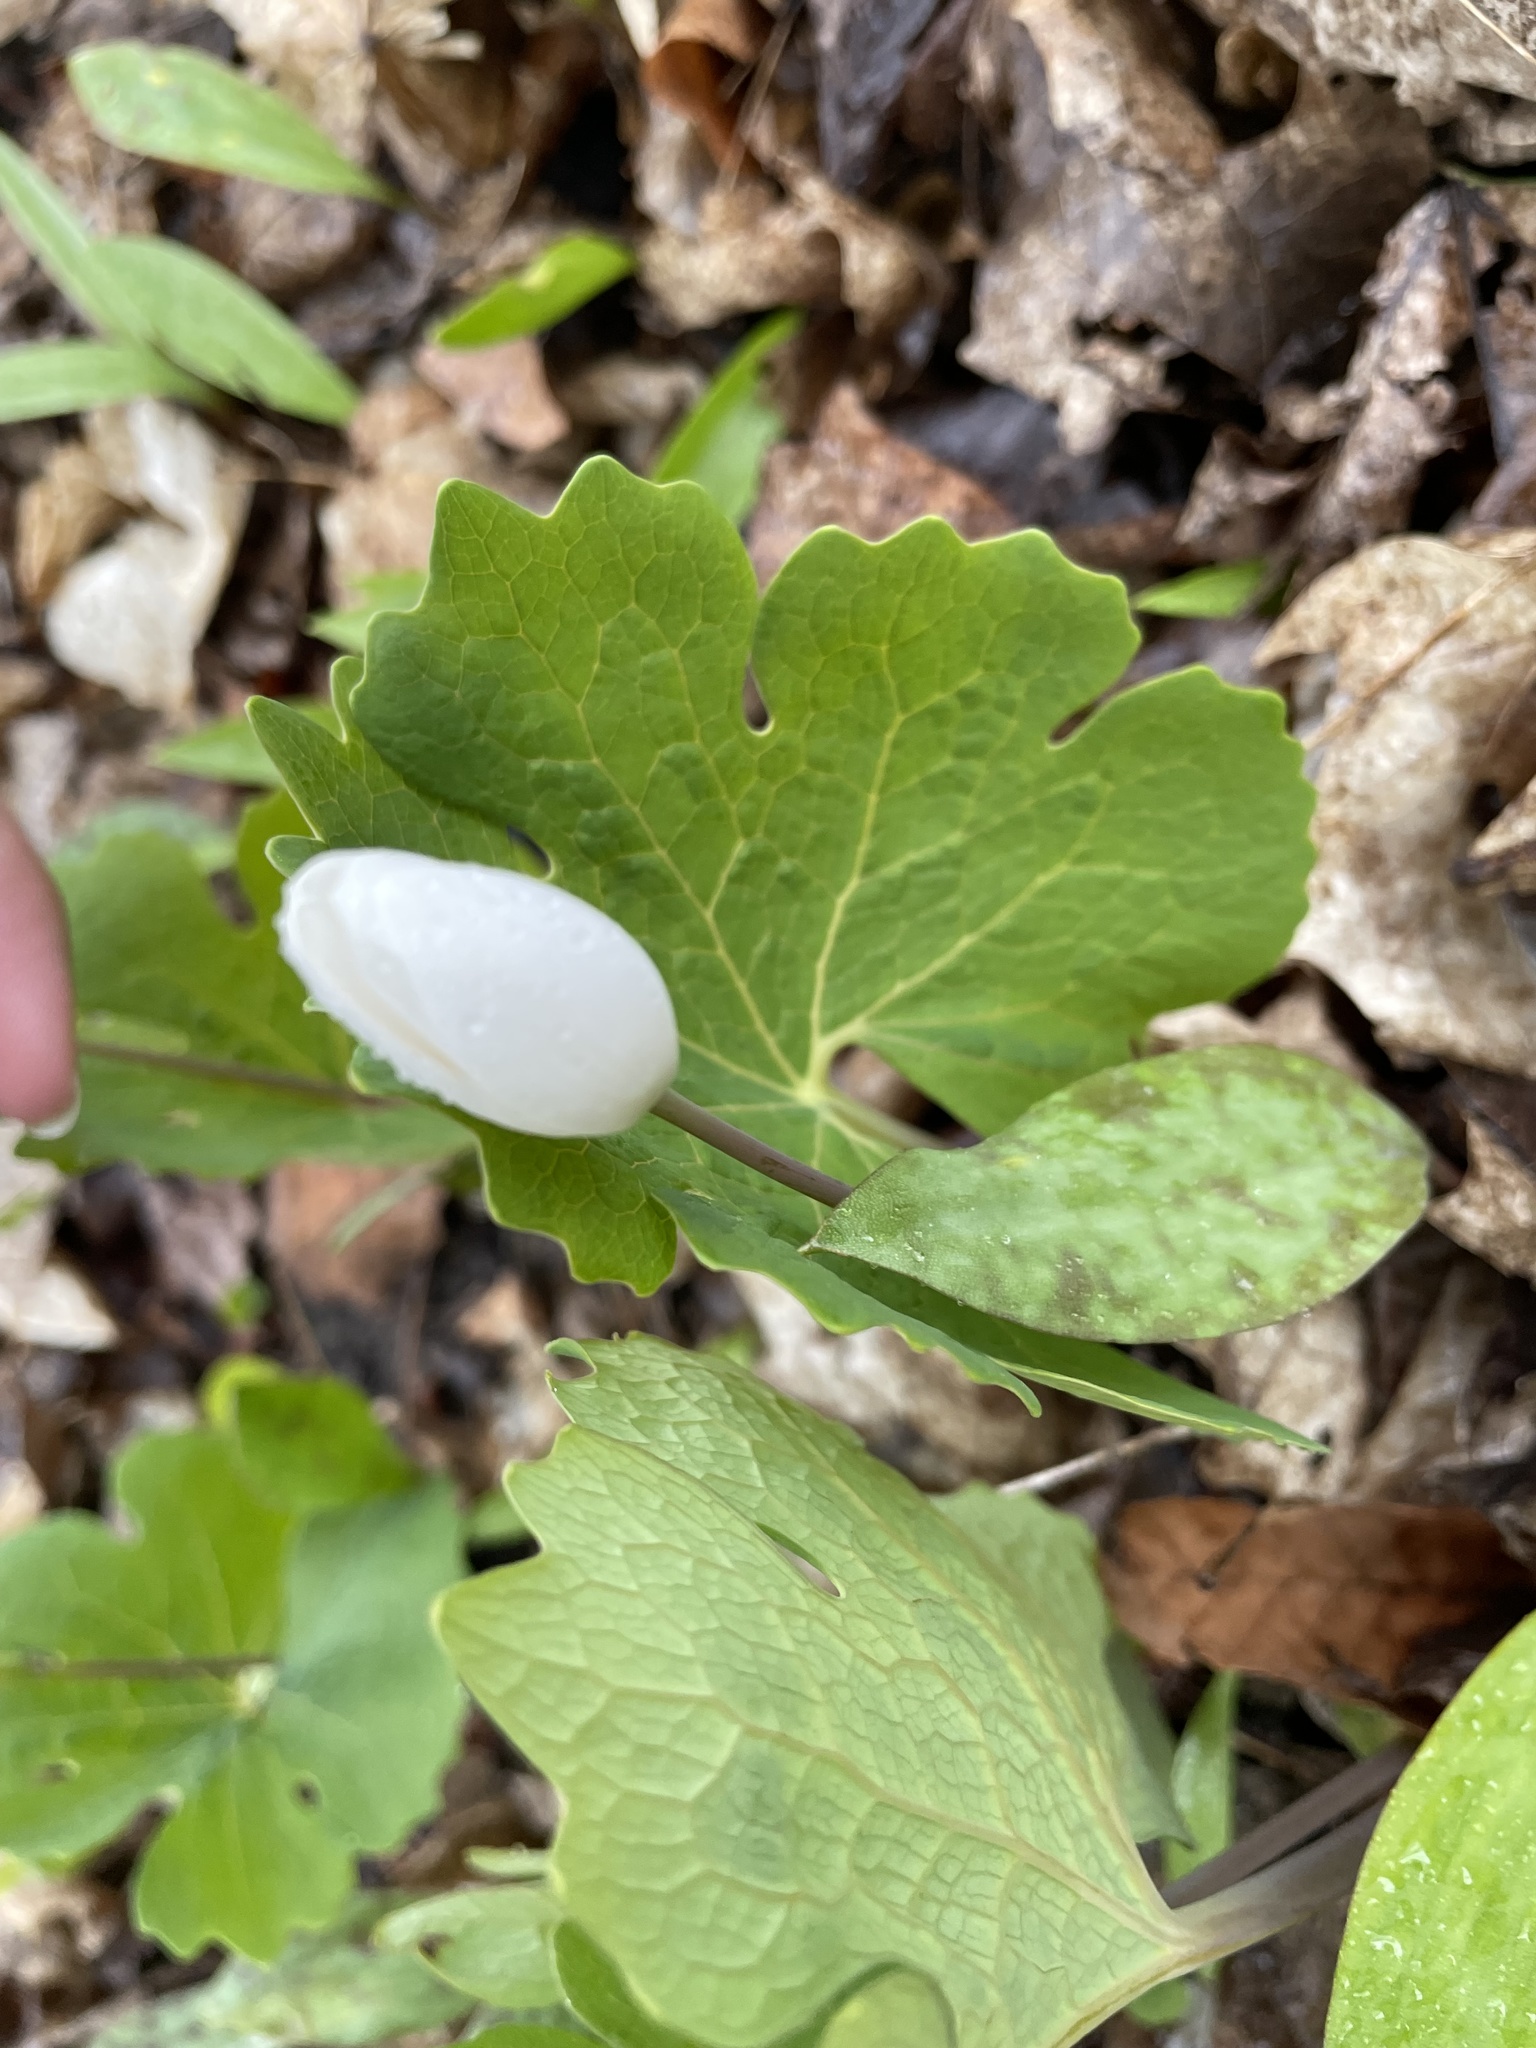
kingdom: Plantae
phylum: Tracheophyta
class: Magnoliopsida
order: Ranunculales
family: Papaveraceae
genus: Sanguinaria
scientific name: Sanguinaria canadensis
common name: Bloodroot
